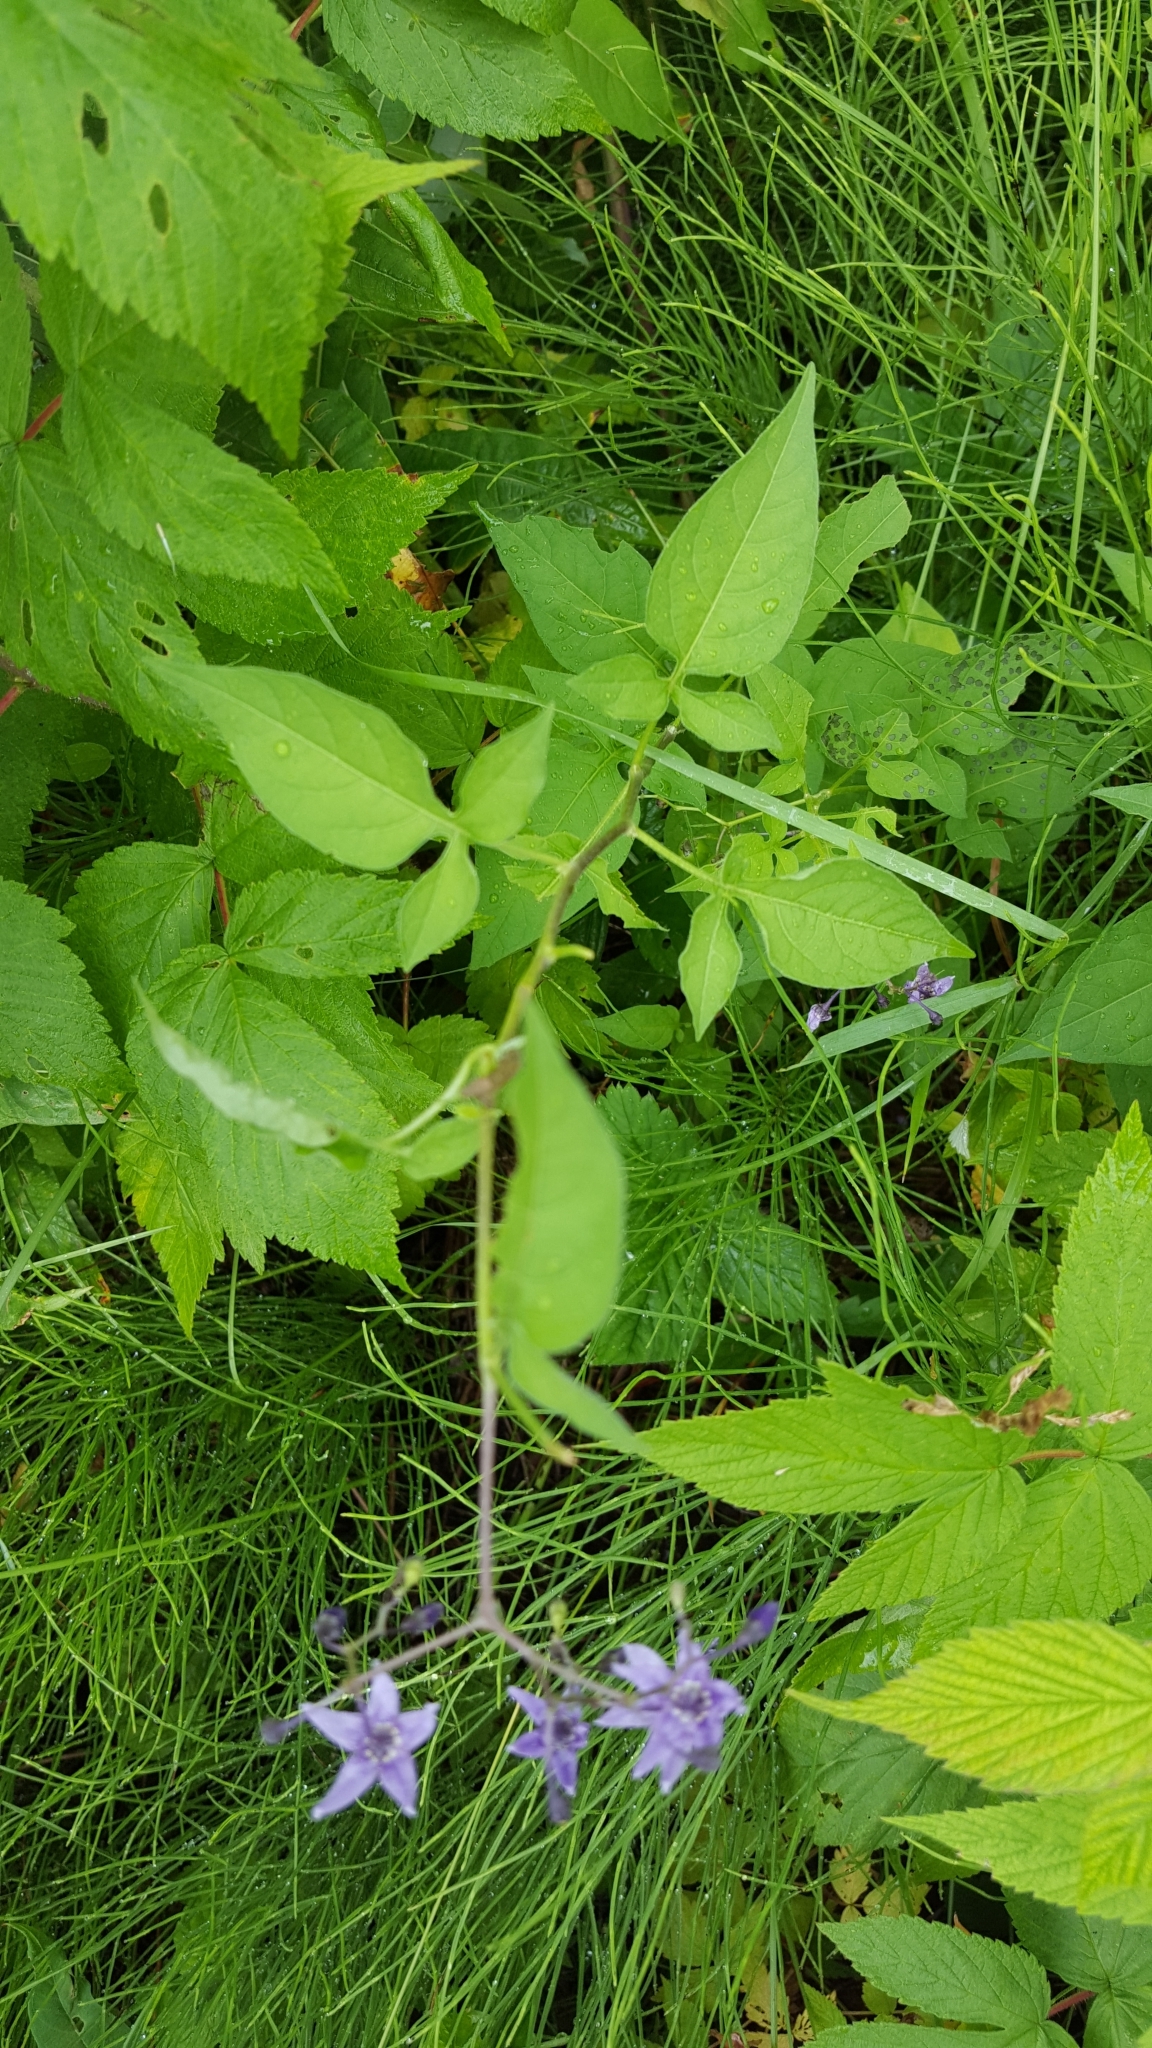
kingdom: Plantae
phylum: Tracheophyta
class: Magnoliopsida
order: Solanales
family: Solanaceae
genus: Solanum
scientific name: Solanum dulcamara
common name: Climbing nightshade
